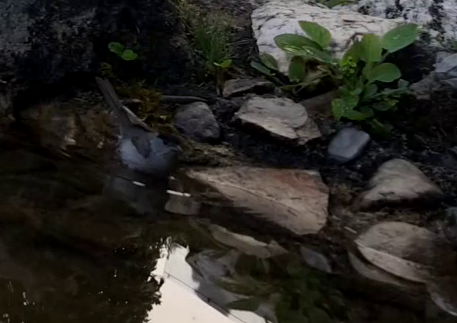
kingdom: Animalia
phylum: Chordata
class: Aves
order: Passeriformes
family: Paridae
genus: Poecile
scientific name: Poecile palustris
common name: Marsh tit
